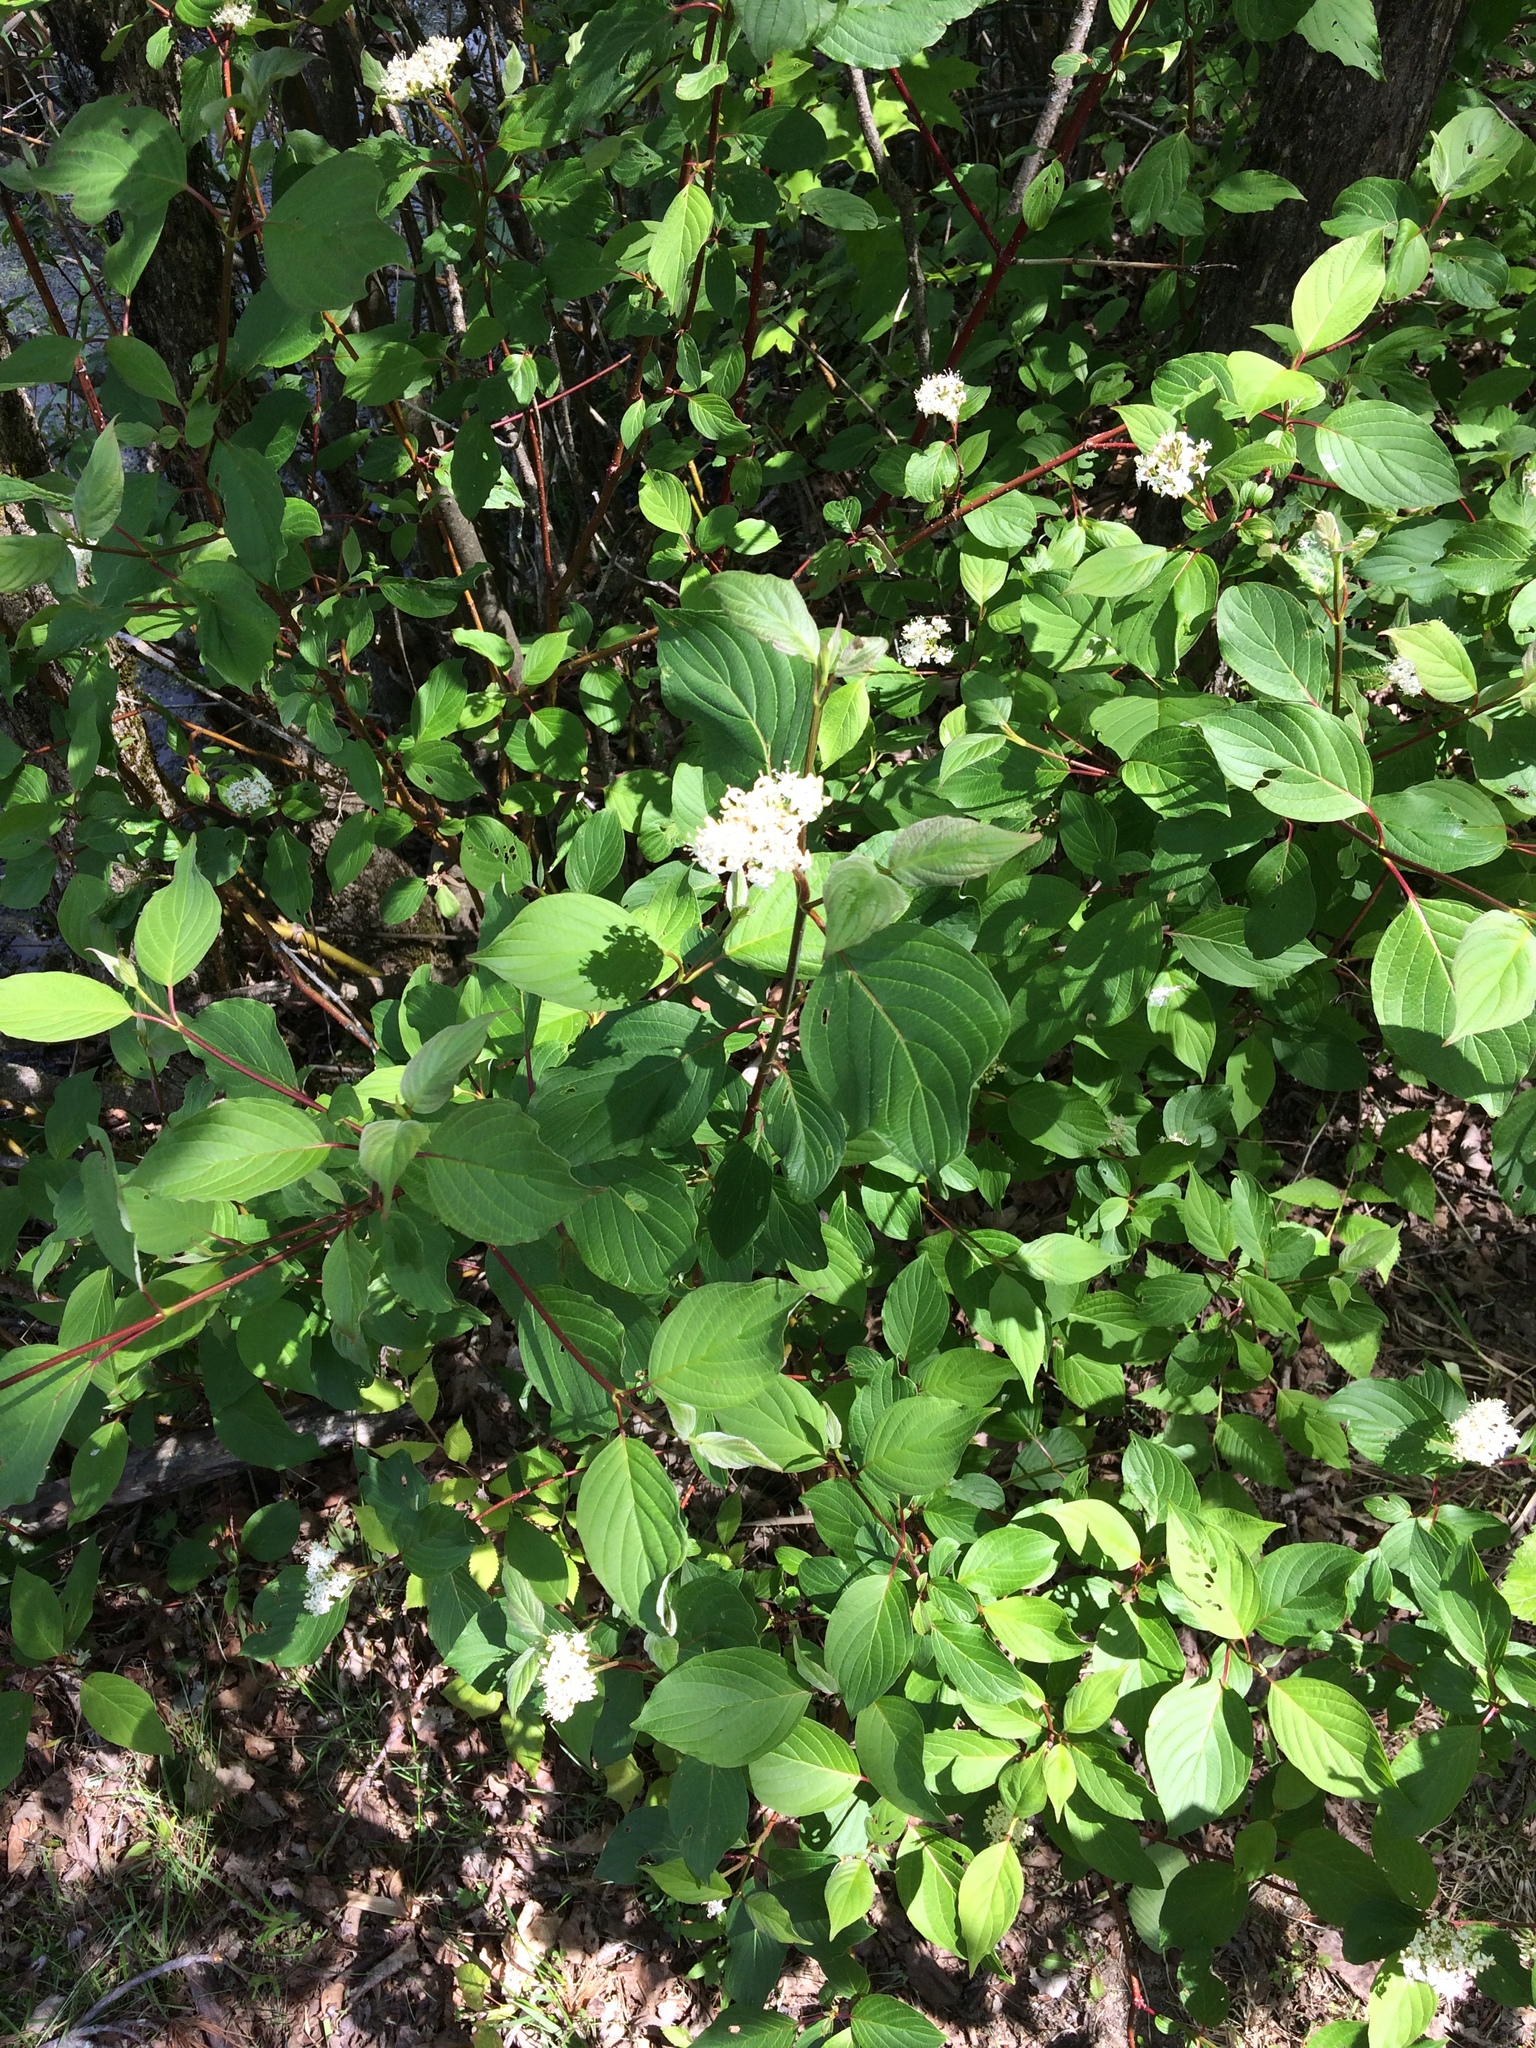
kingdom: Plantae
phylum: Tracheophyta
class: Magnoliopsida
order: Cornales
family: Cornaceae
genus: Cornus
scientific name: Cornus sericea
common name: Red-osier dogwood
